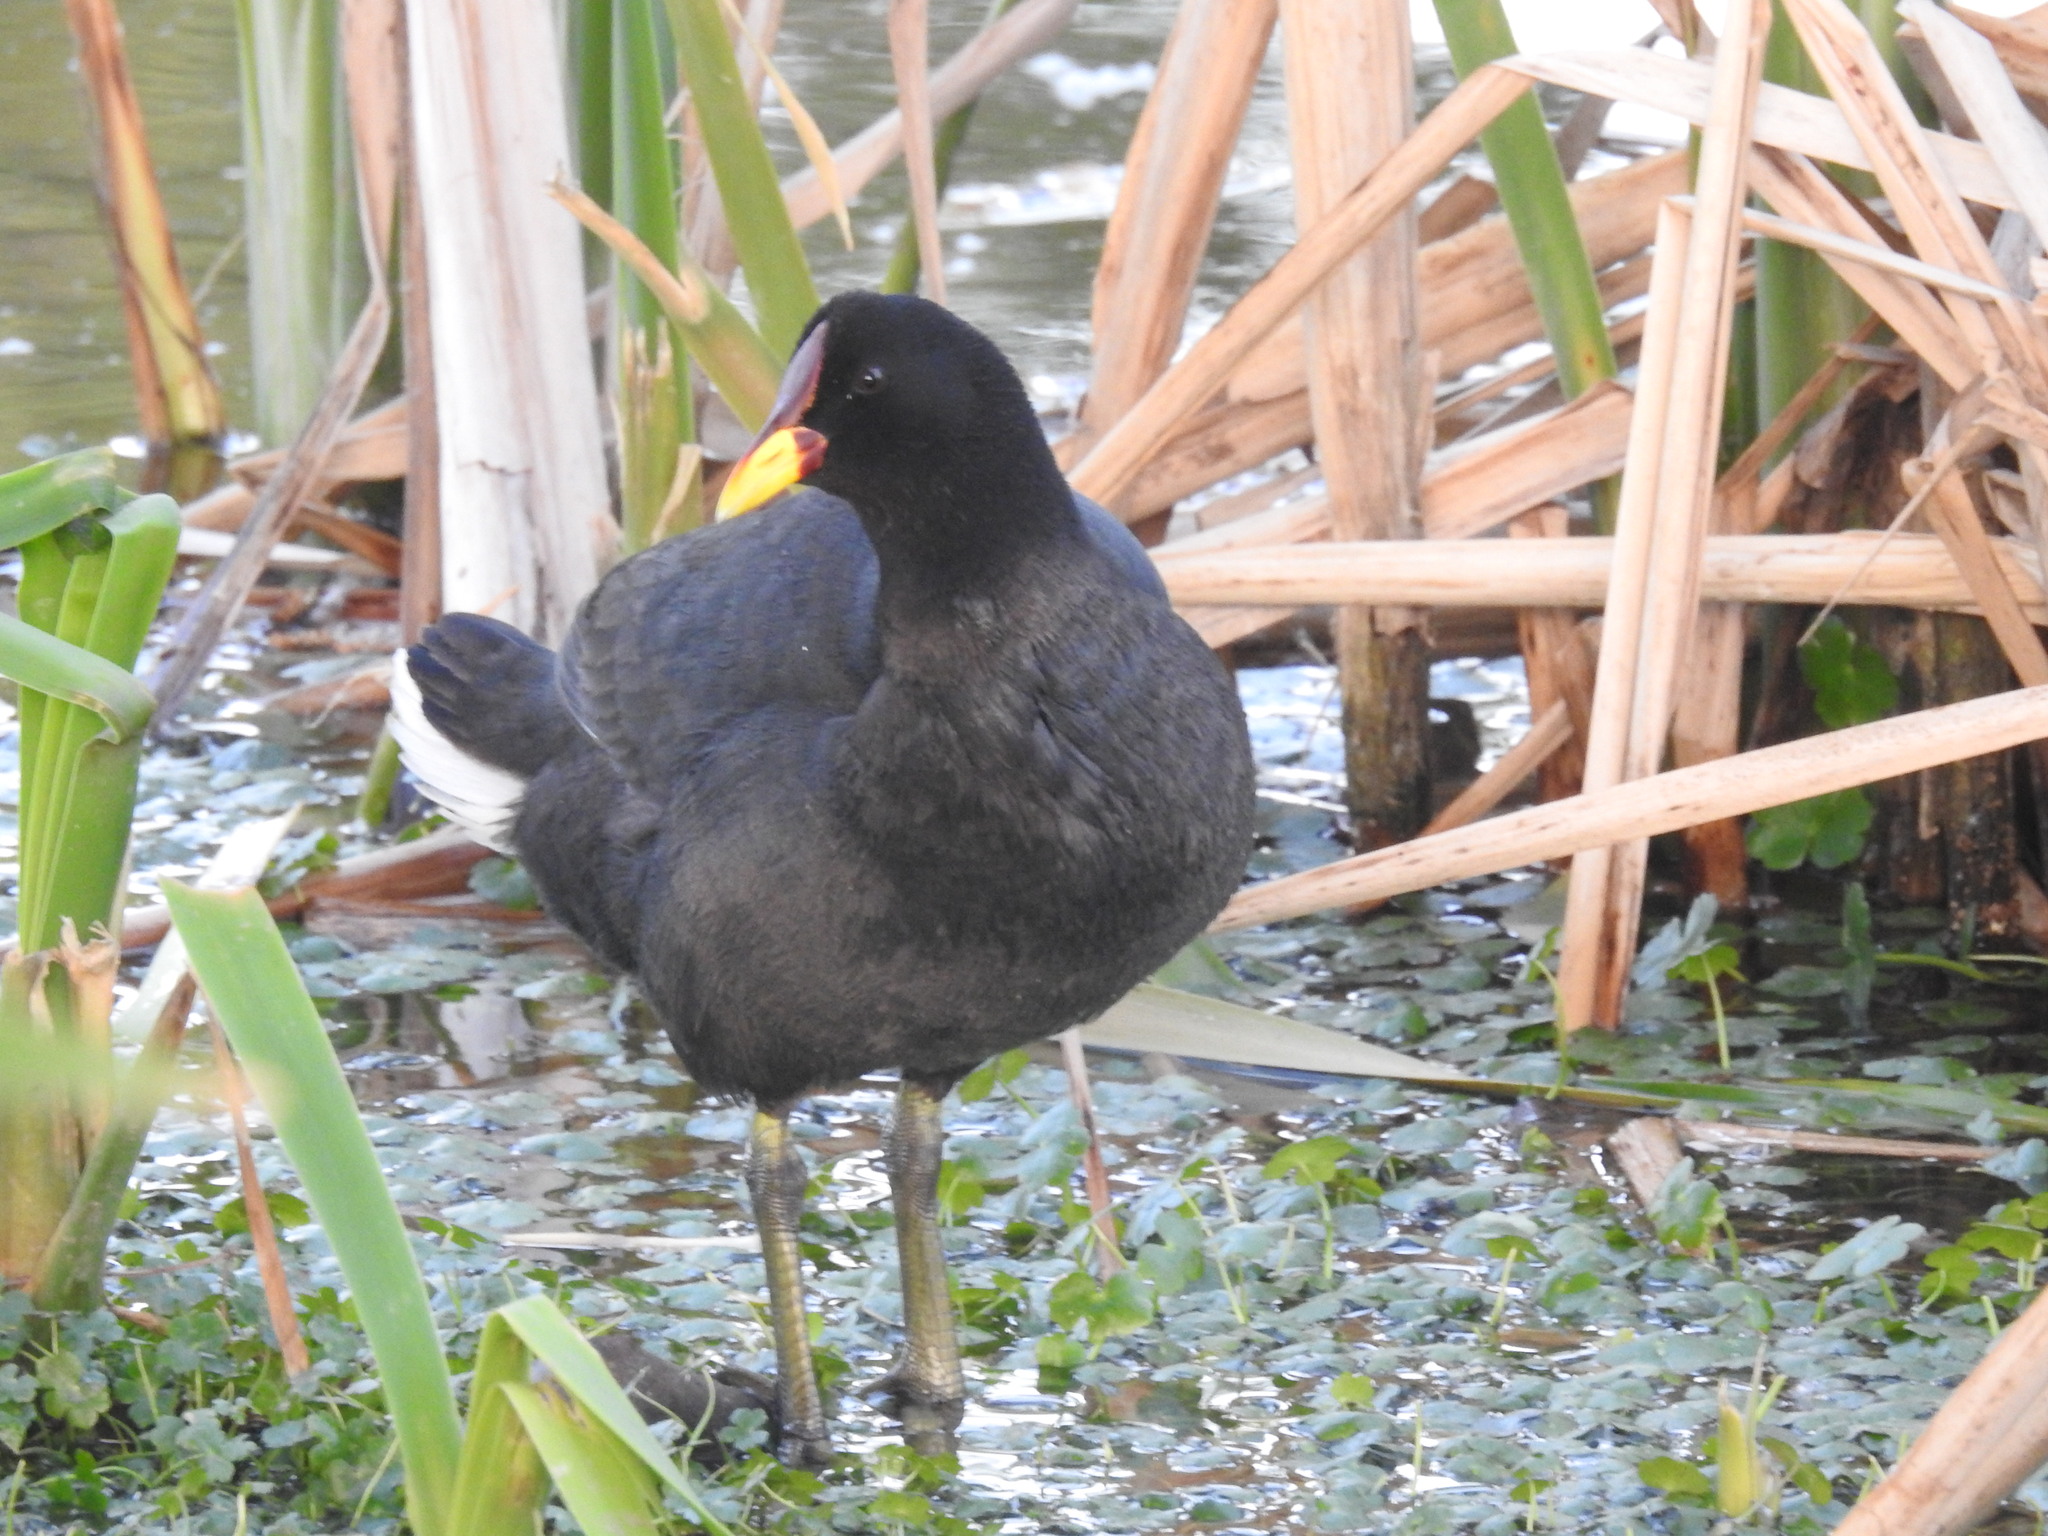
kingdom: Animalia
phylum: Chordata
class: Aves
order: Gruiformes
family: Rallidae
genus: Fulica
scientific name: Fulica rufifrons
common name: Red-fronted coot
